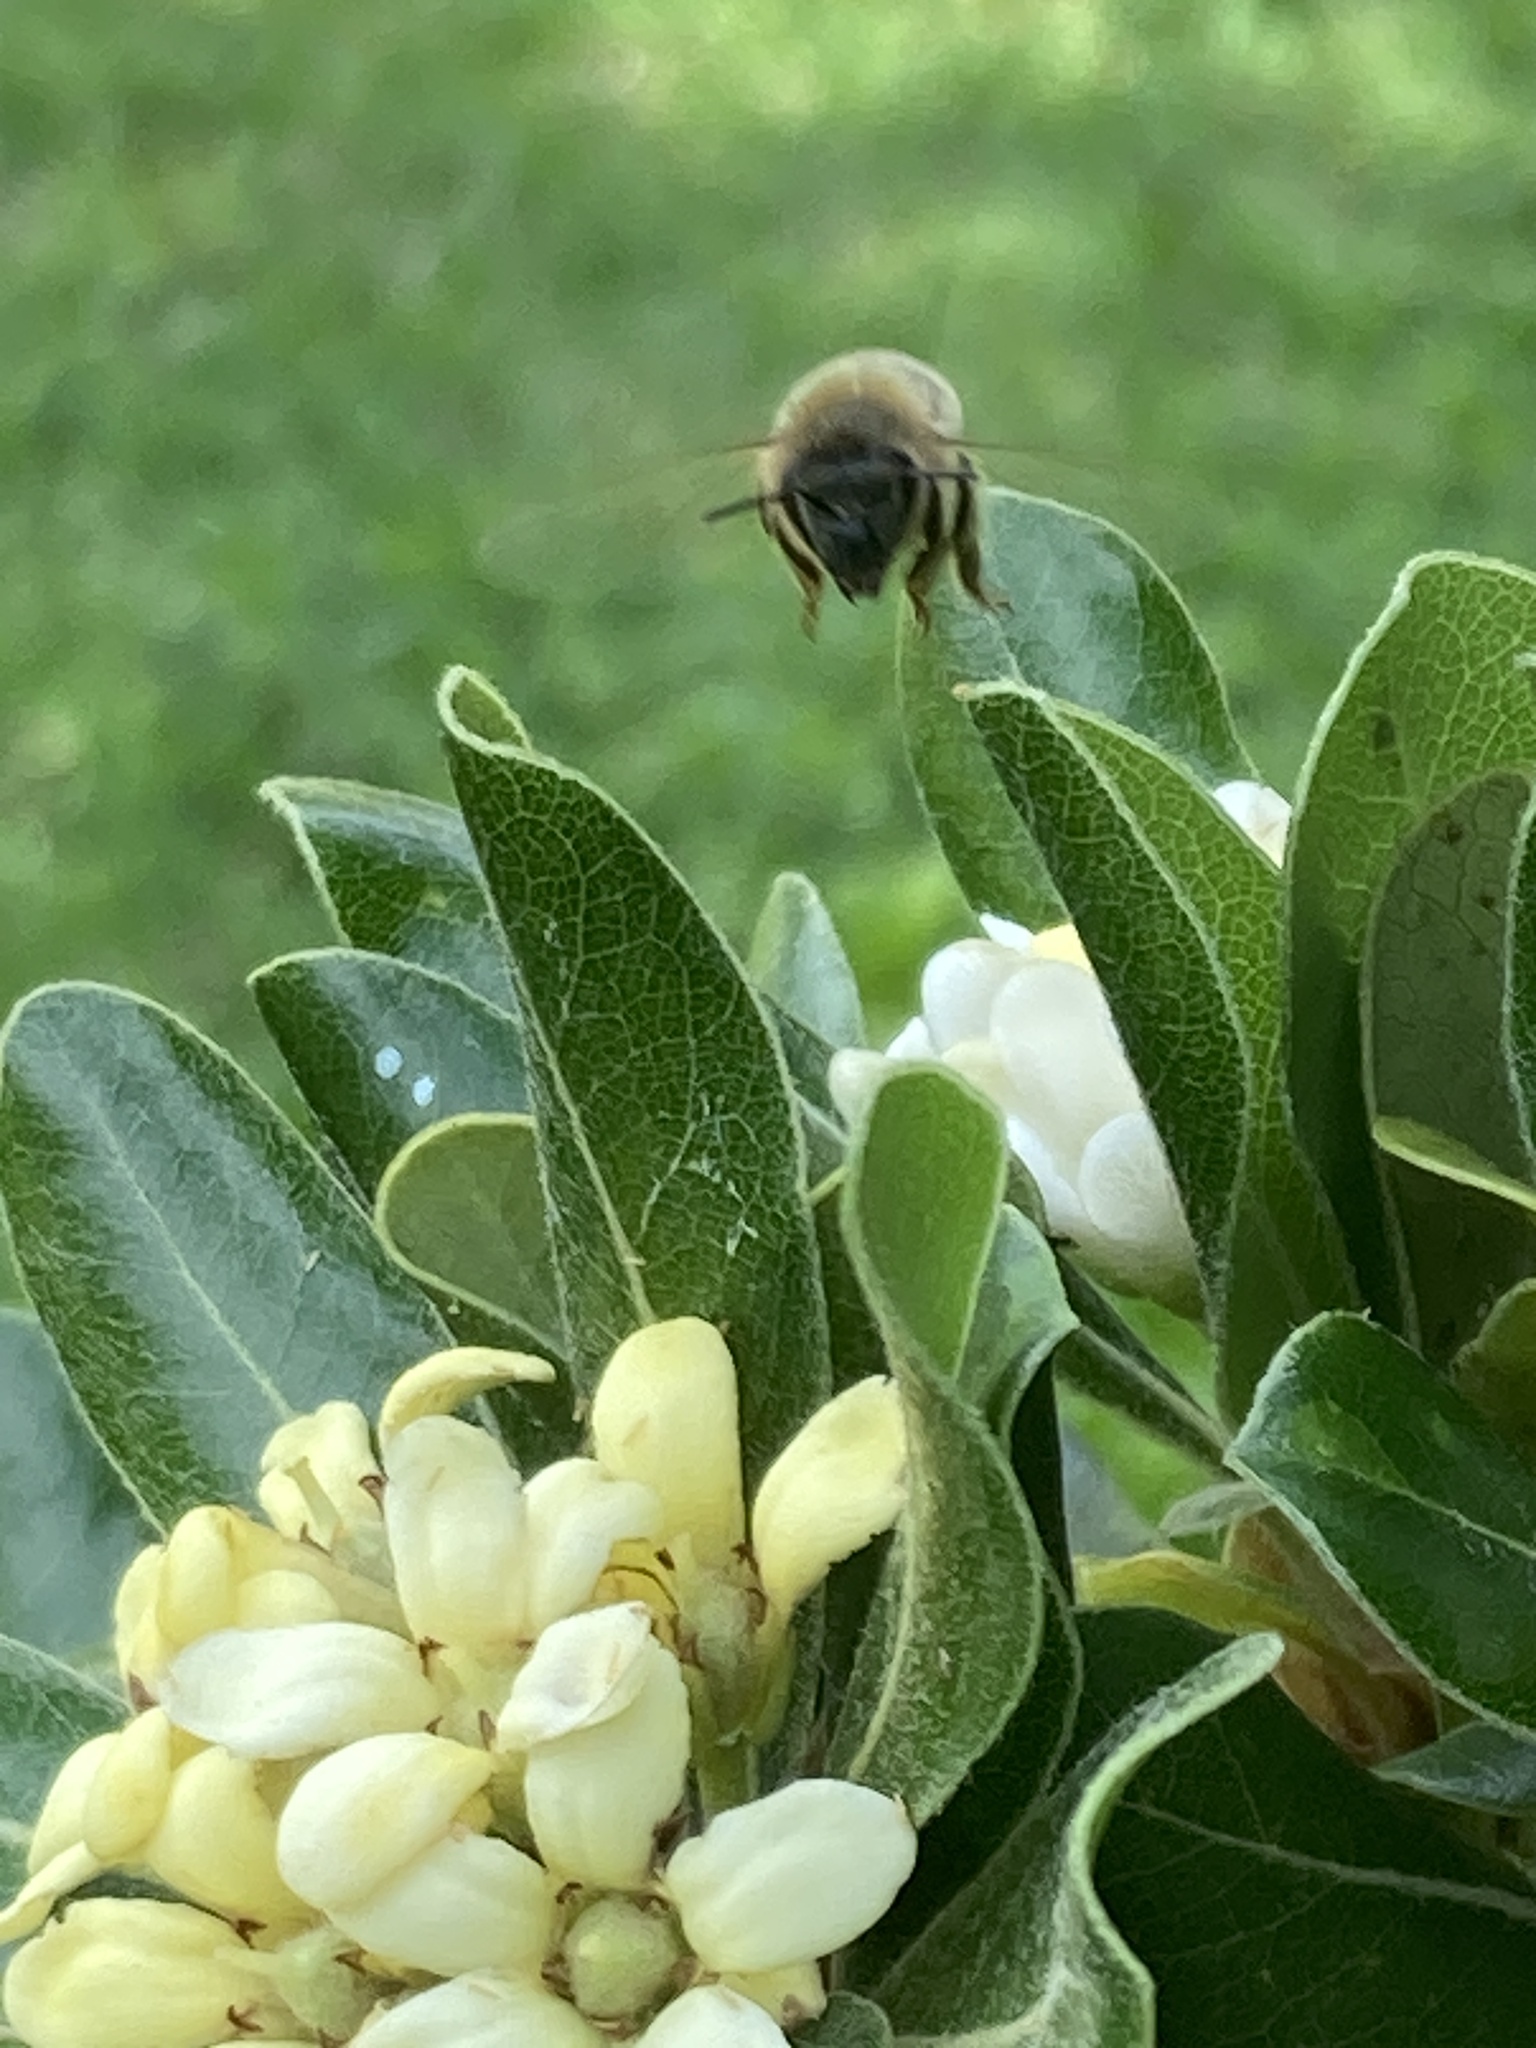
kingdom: Animalia
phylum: Arthropoda
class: Insecta
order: Hymenoptera
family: Apidae
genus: Apis
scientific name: Apis mellifera
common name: Honey bee
